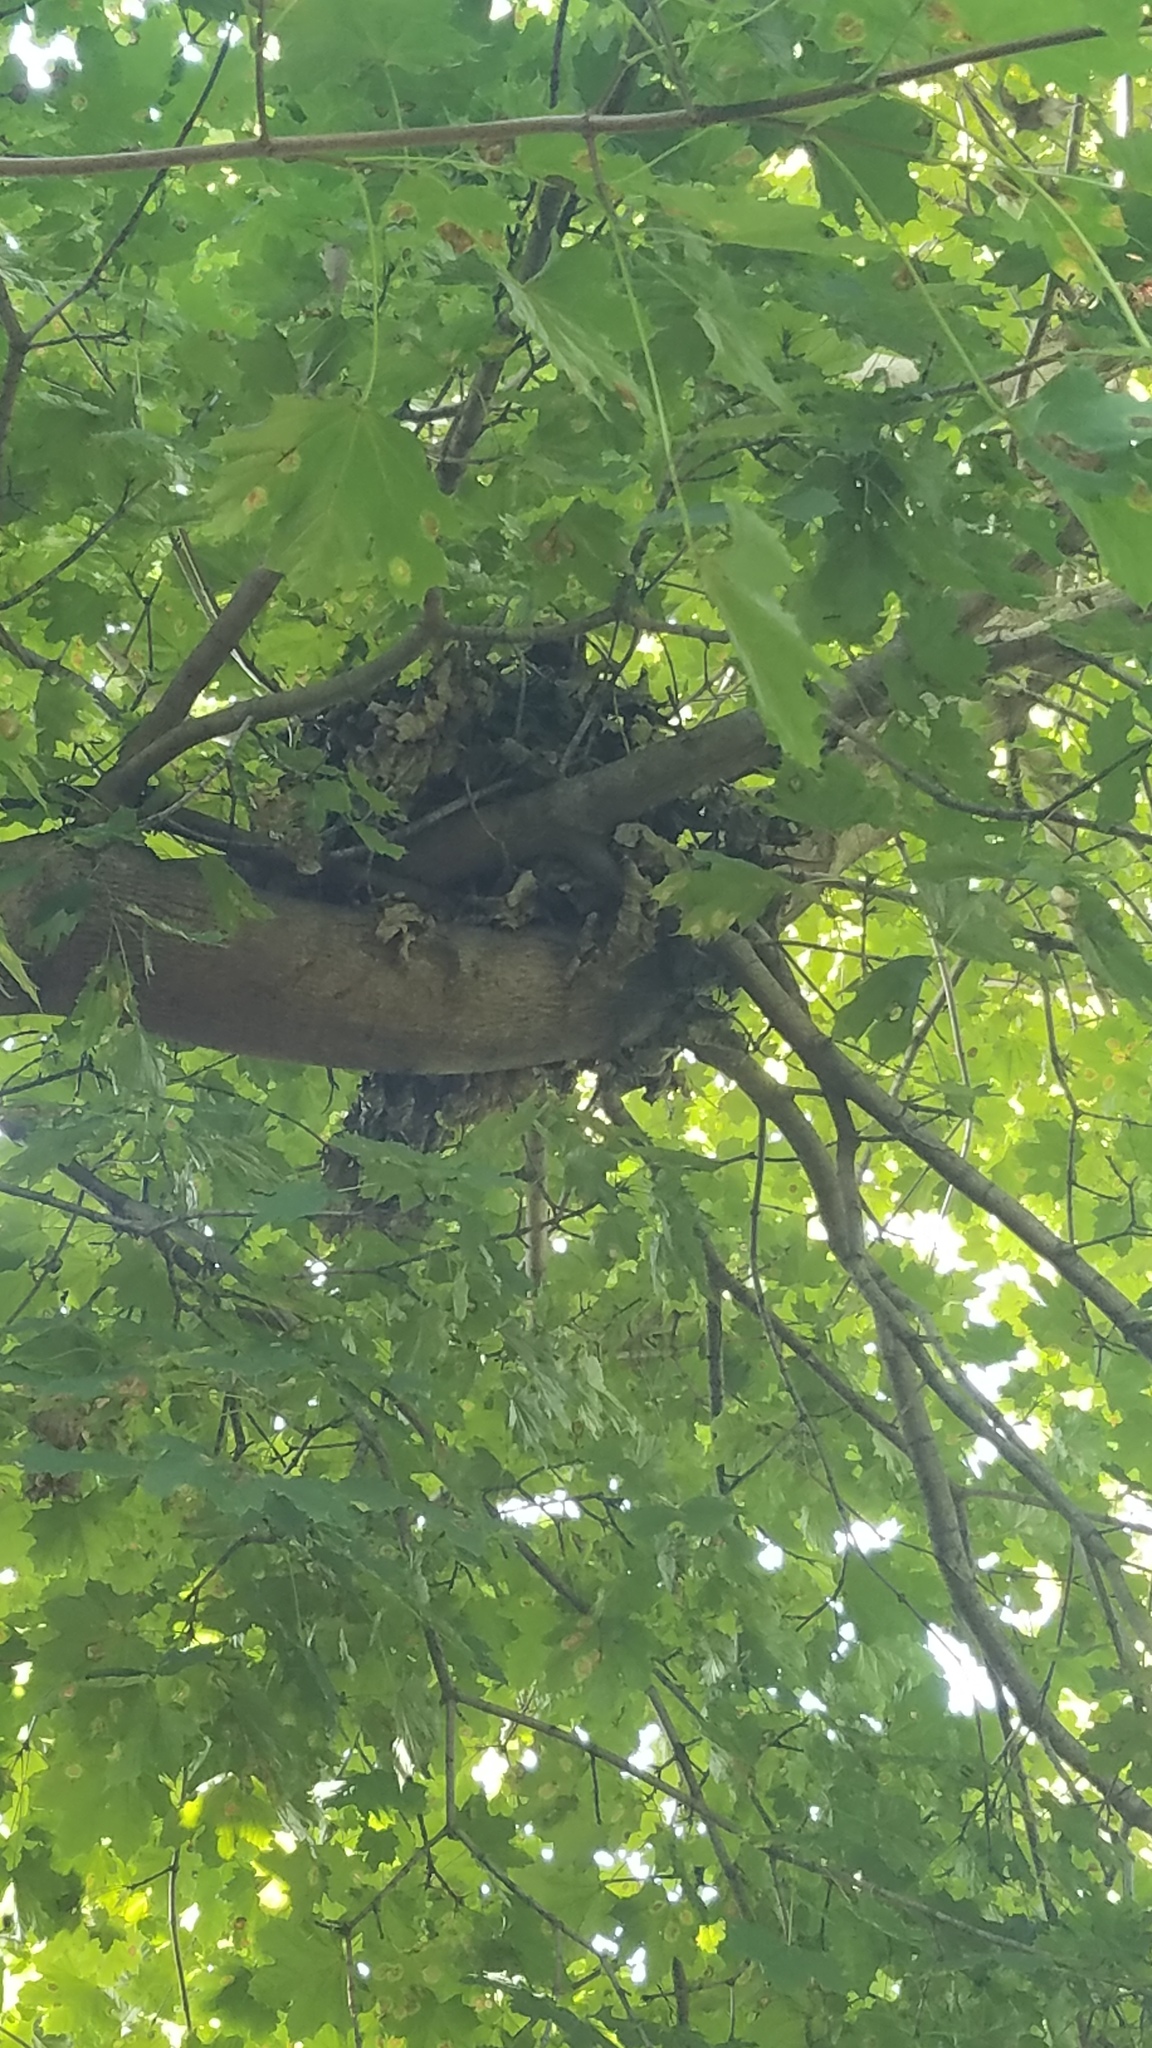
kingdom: Animalia
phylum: Chordata
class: Mammalia
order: Rodentia
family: Sciuridae
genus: Sciurus
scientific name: Sciurus carolinensis
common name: Eastern gray squirrel
